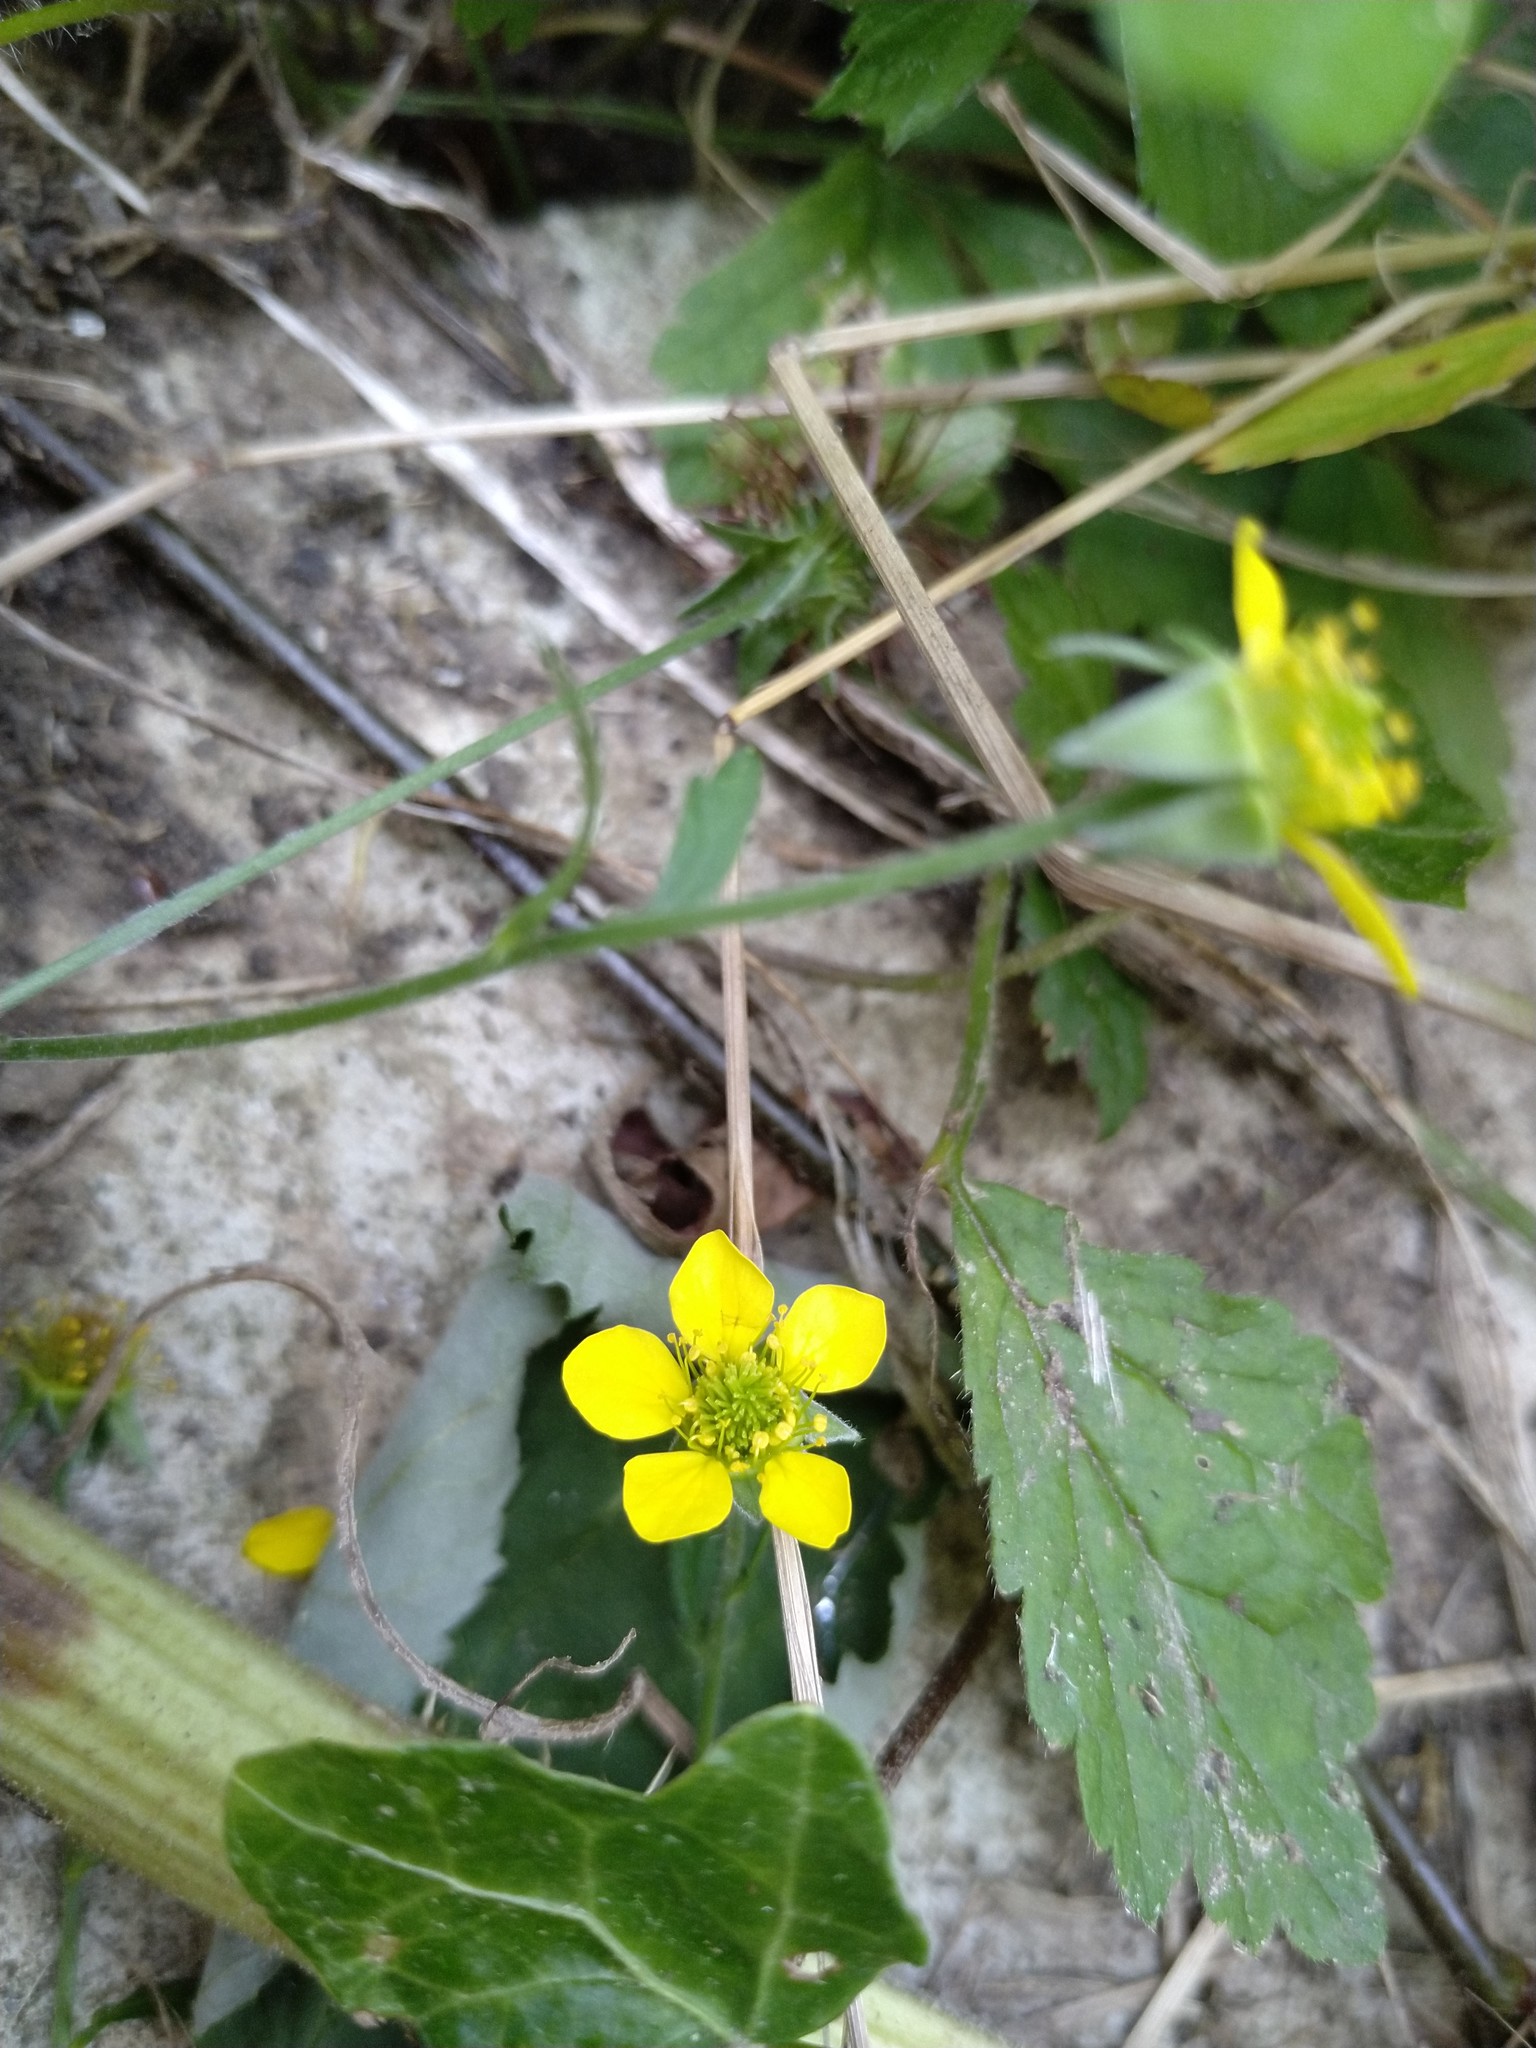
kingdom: Plantae
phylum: Tracheophyta
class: Magnoliopsida
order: Rosales
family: Rosaceae
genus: Geum
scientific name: Geum urbanum
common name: Wood avens
